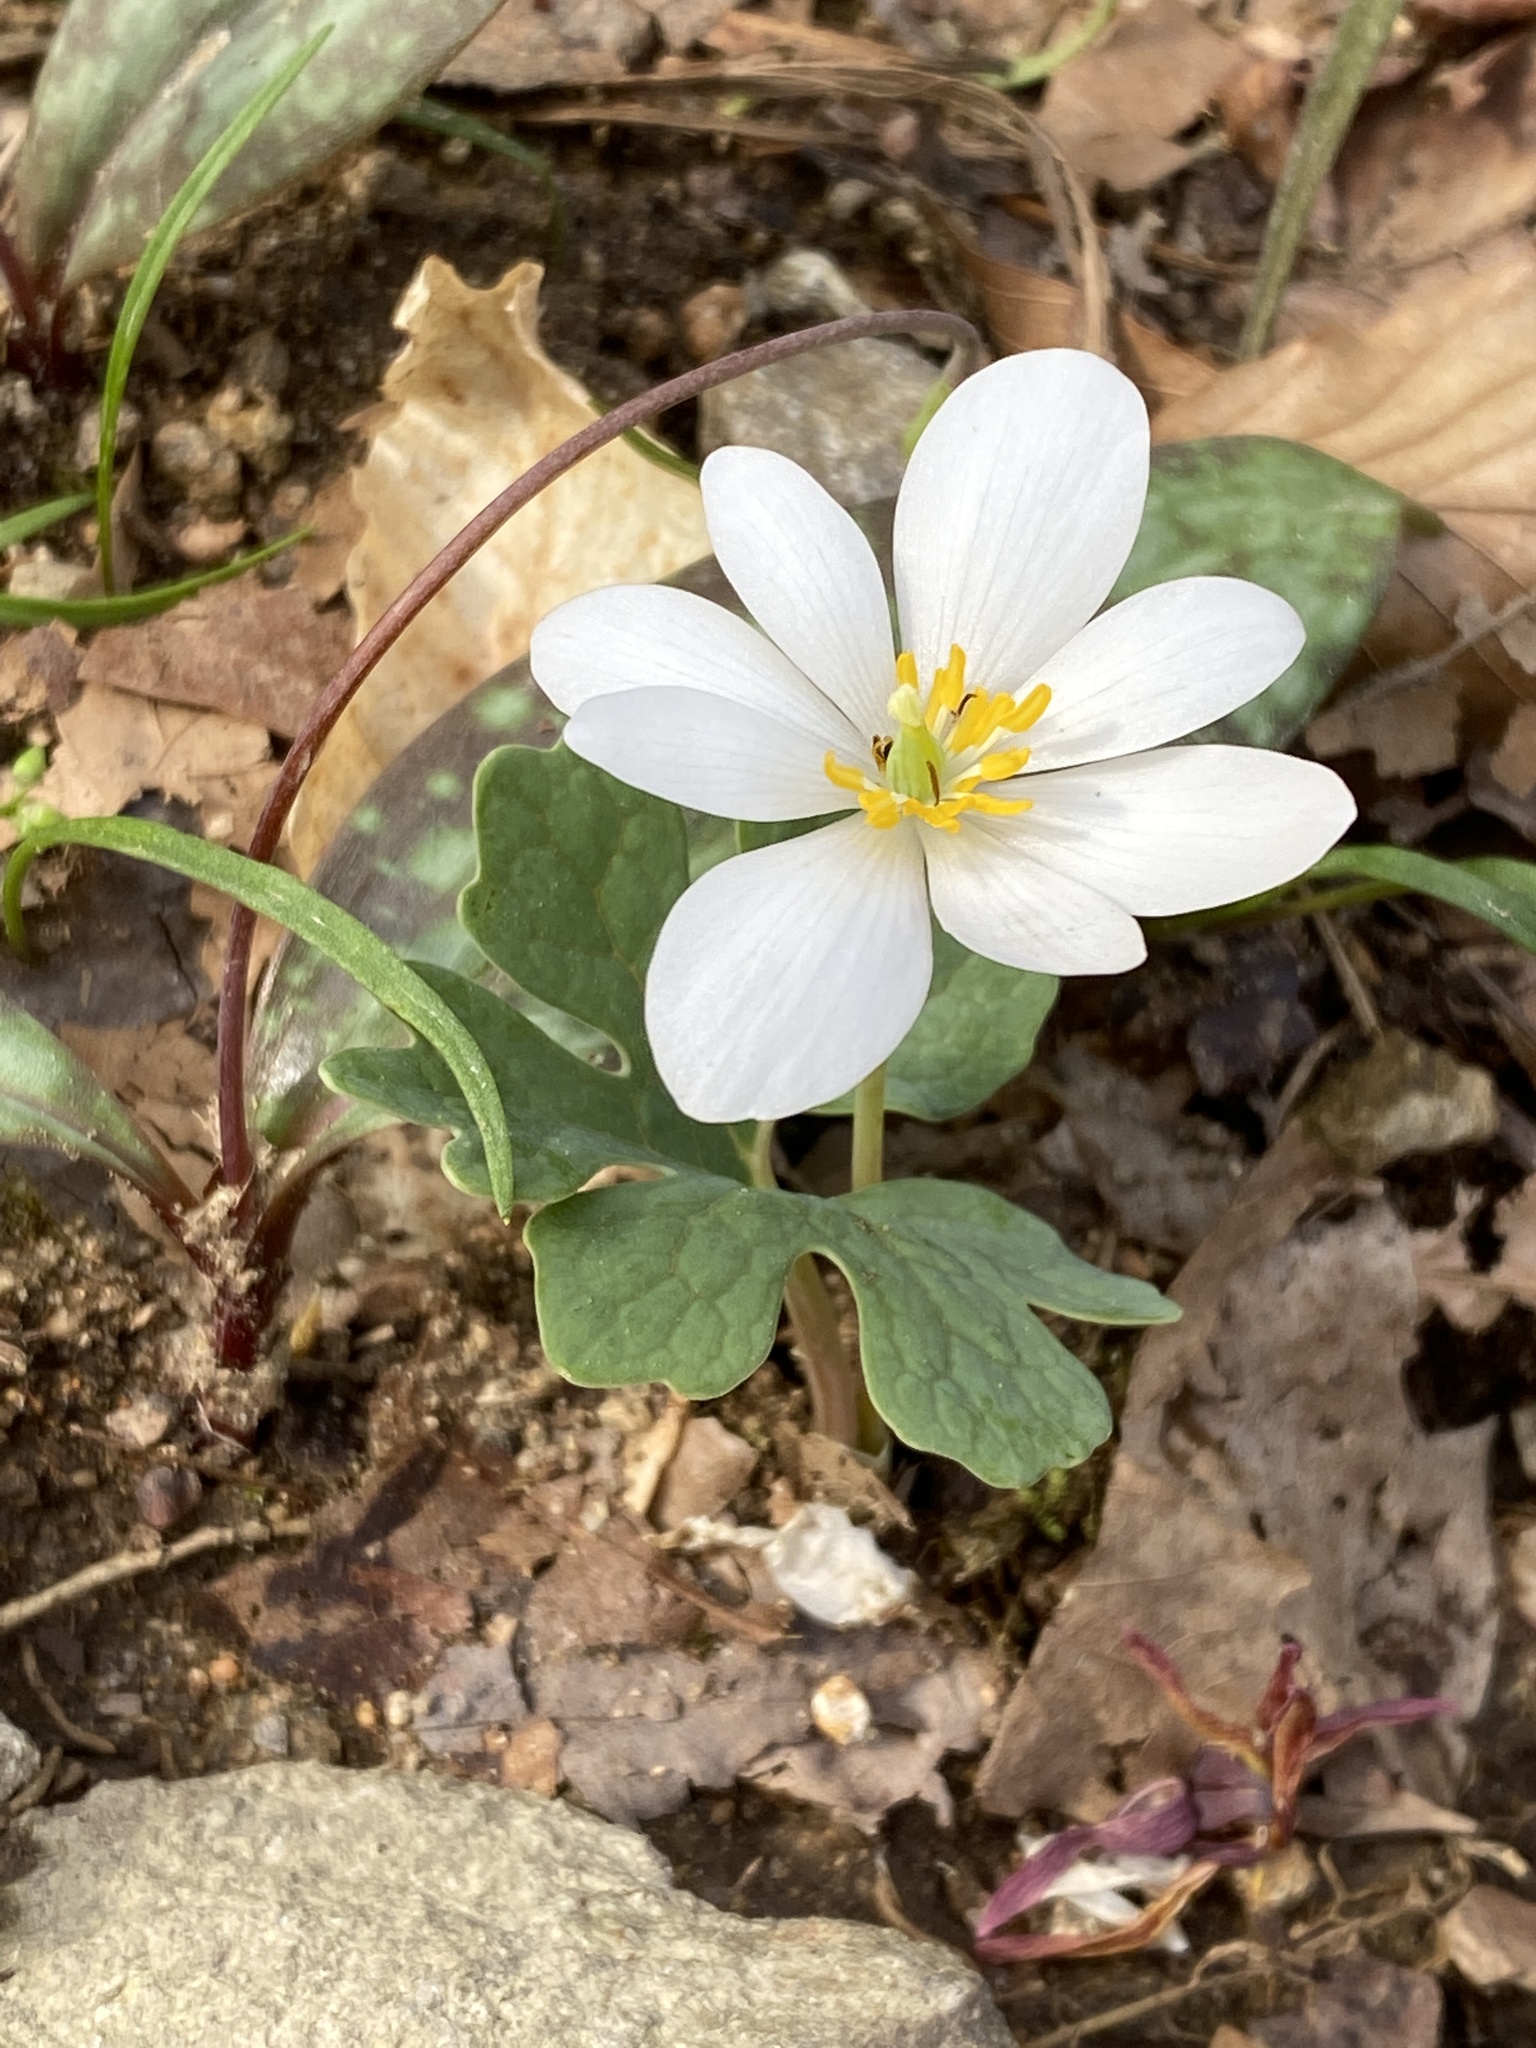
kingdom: Plantae
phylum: Tracheophyta
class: Magnoliopsida
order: Ranunculales
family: Papaveraceae
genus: Sanguinaria
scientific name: Sanguinaria canadensis
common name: Bloodroot
